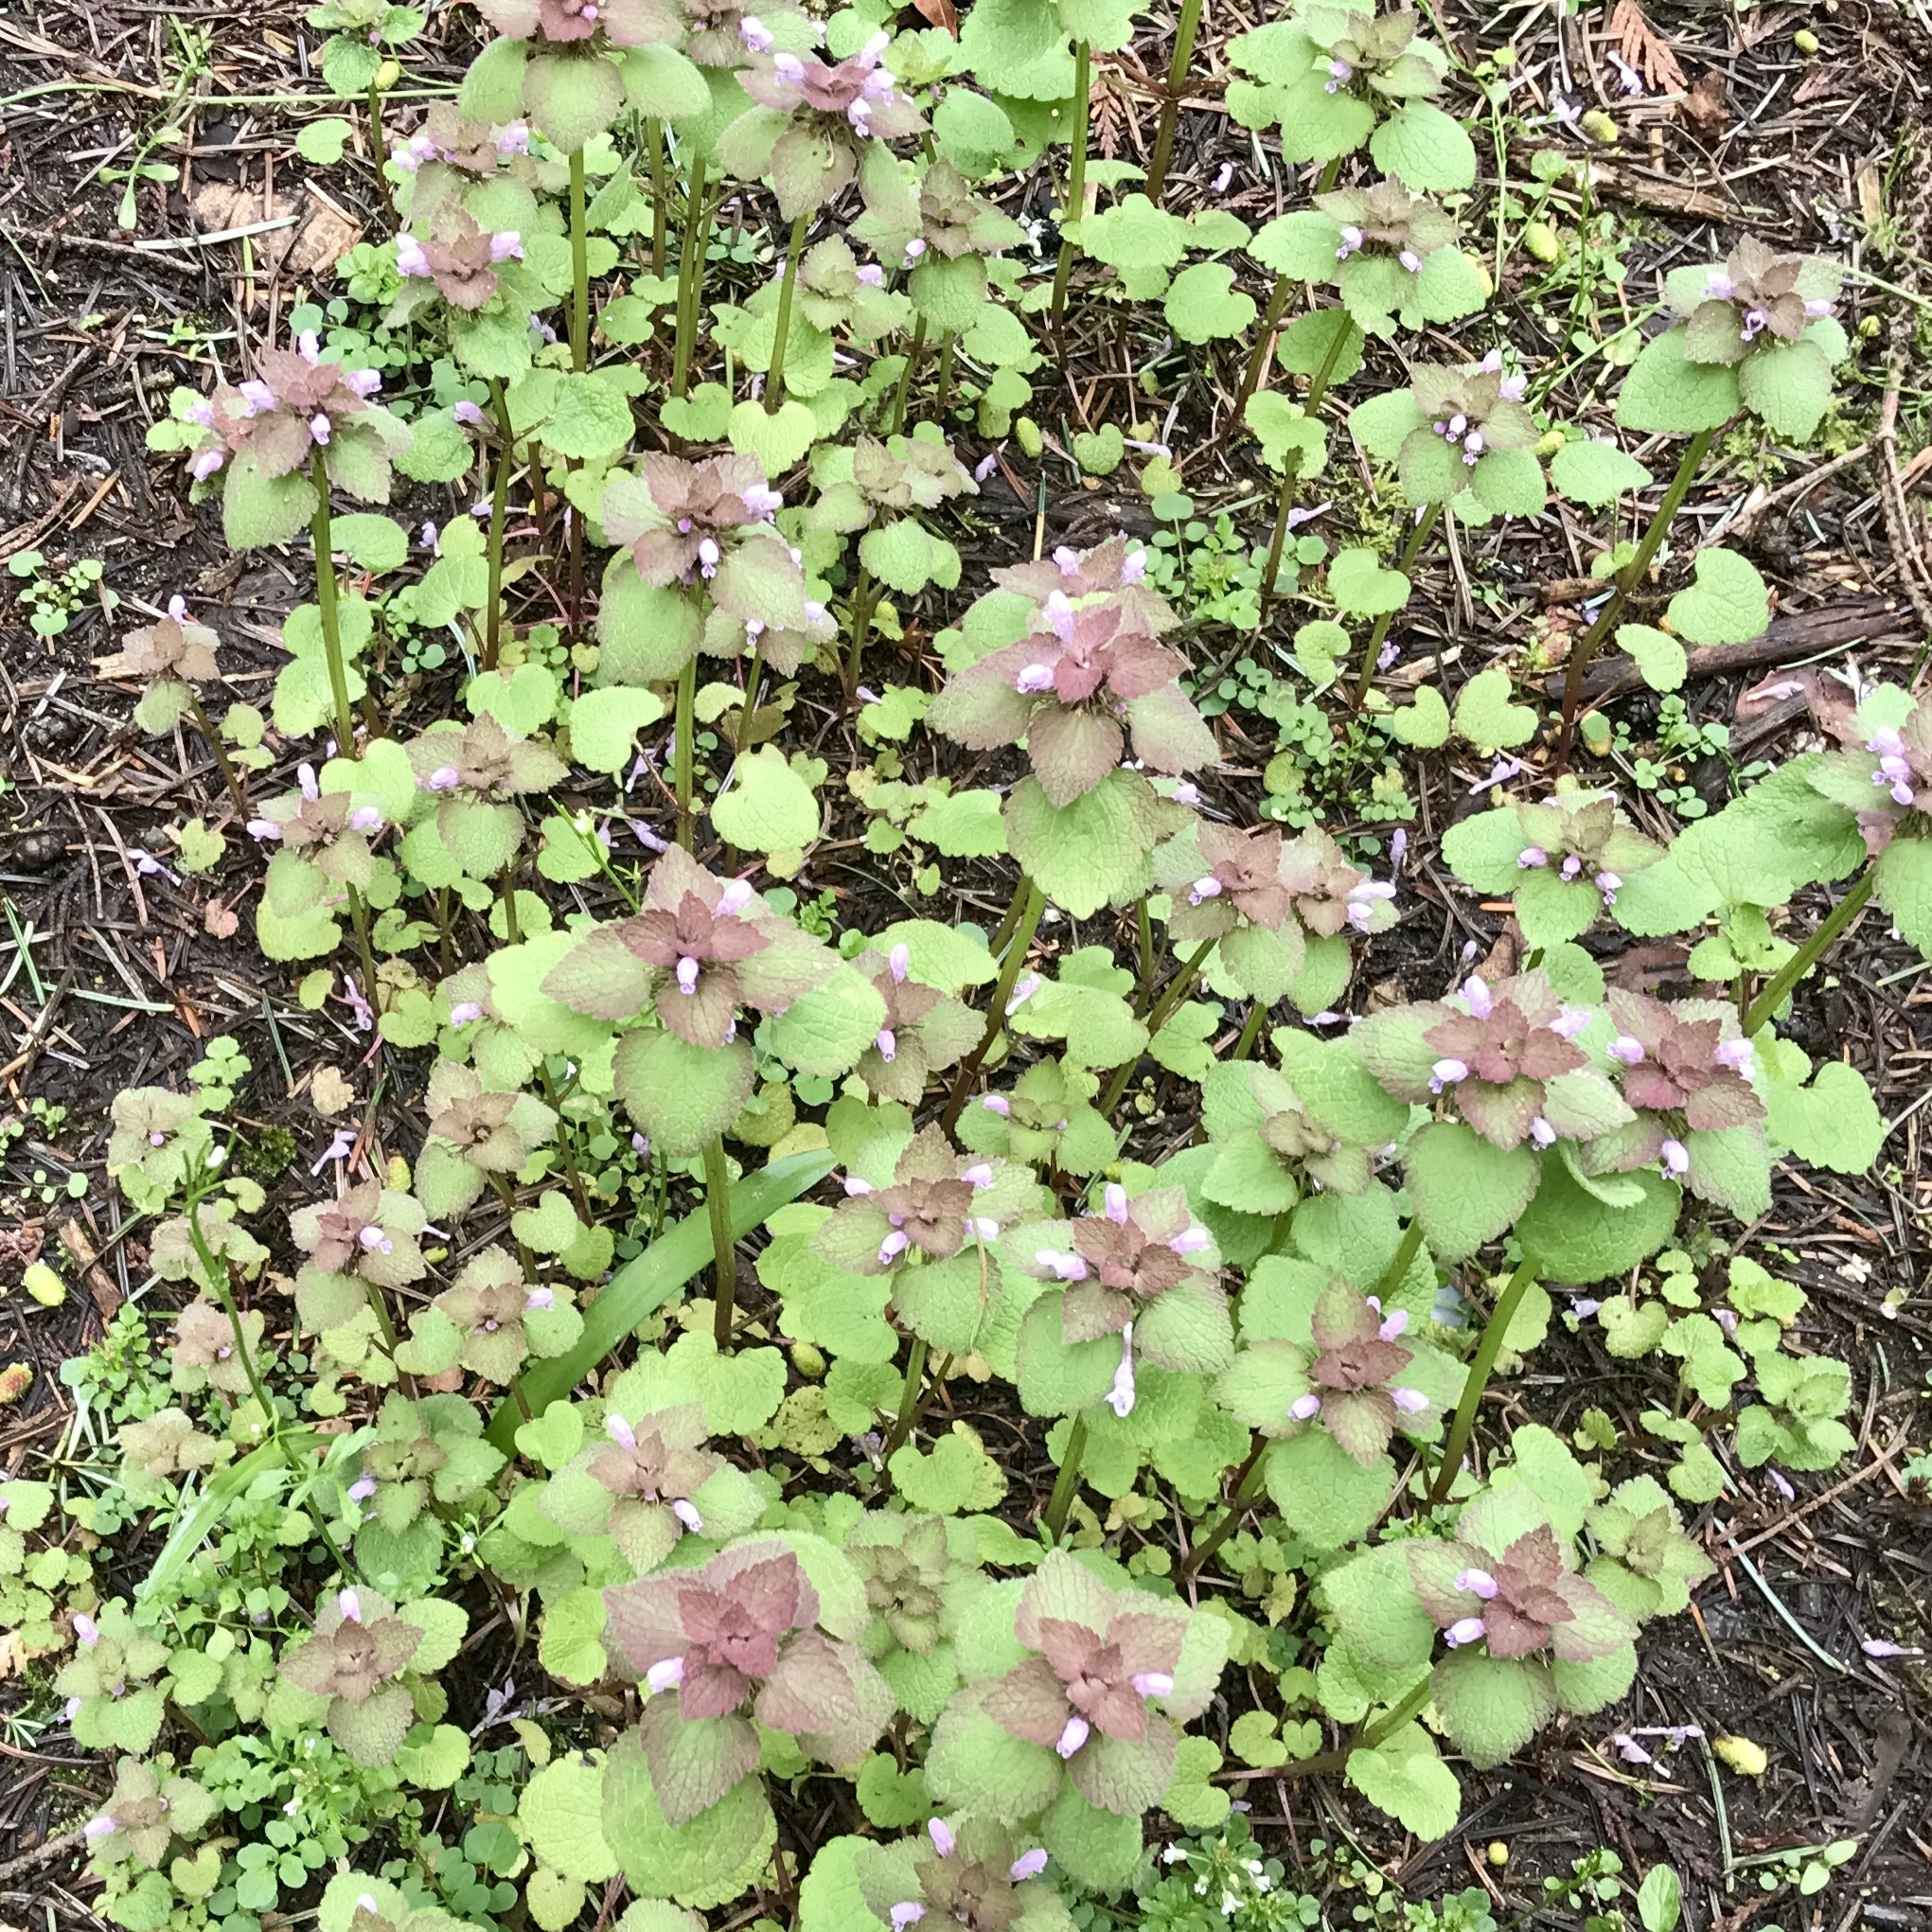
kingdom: Plantae
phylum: Tracheophyta
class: Magnoliopsida
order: Lamiales
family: Lamiaceae
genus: Lamium
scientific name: Lamium purpureum
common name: Red dead-nettle
